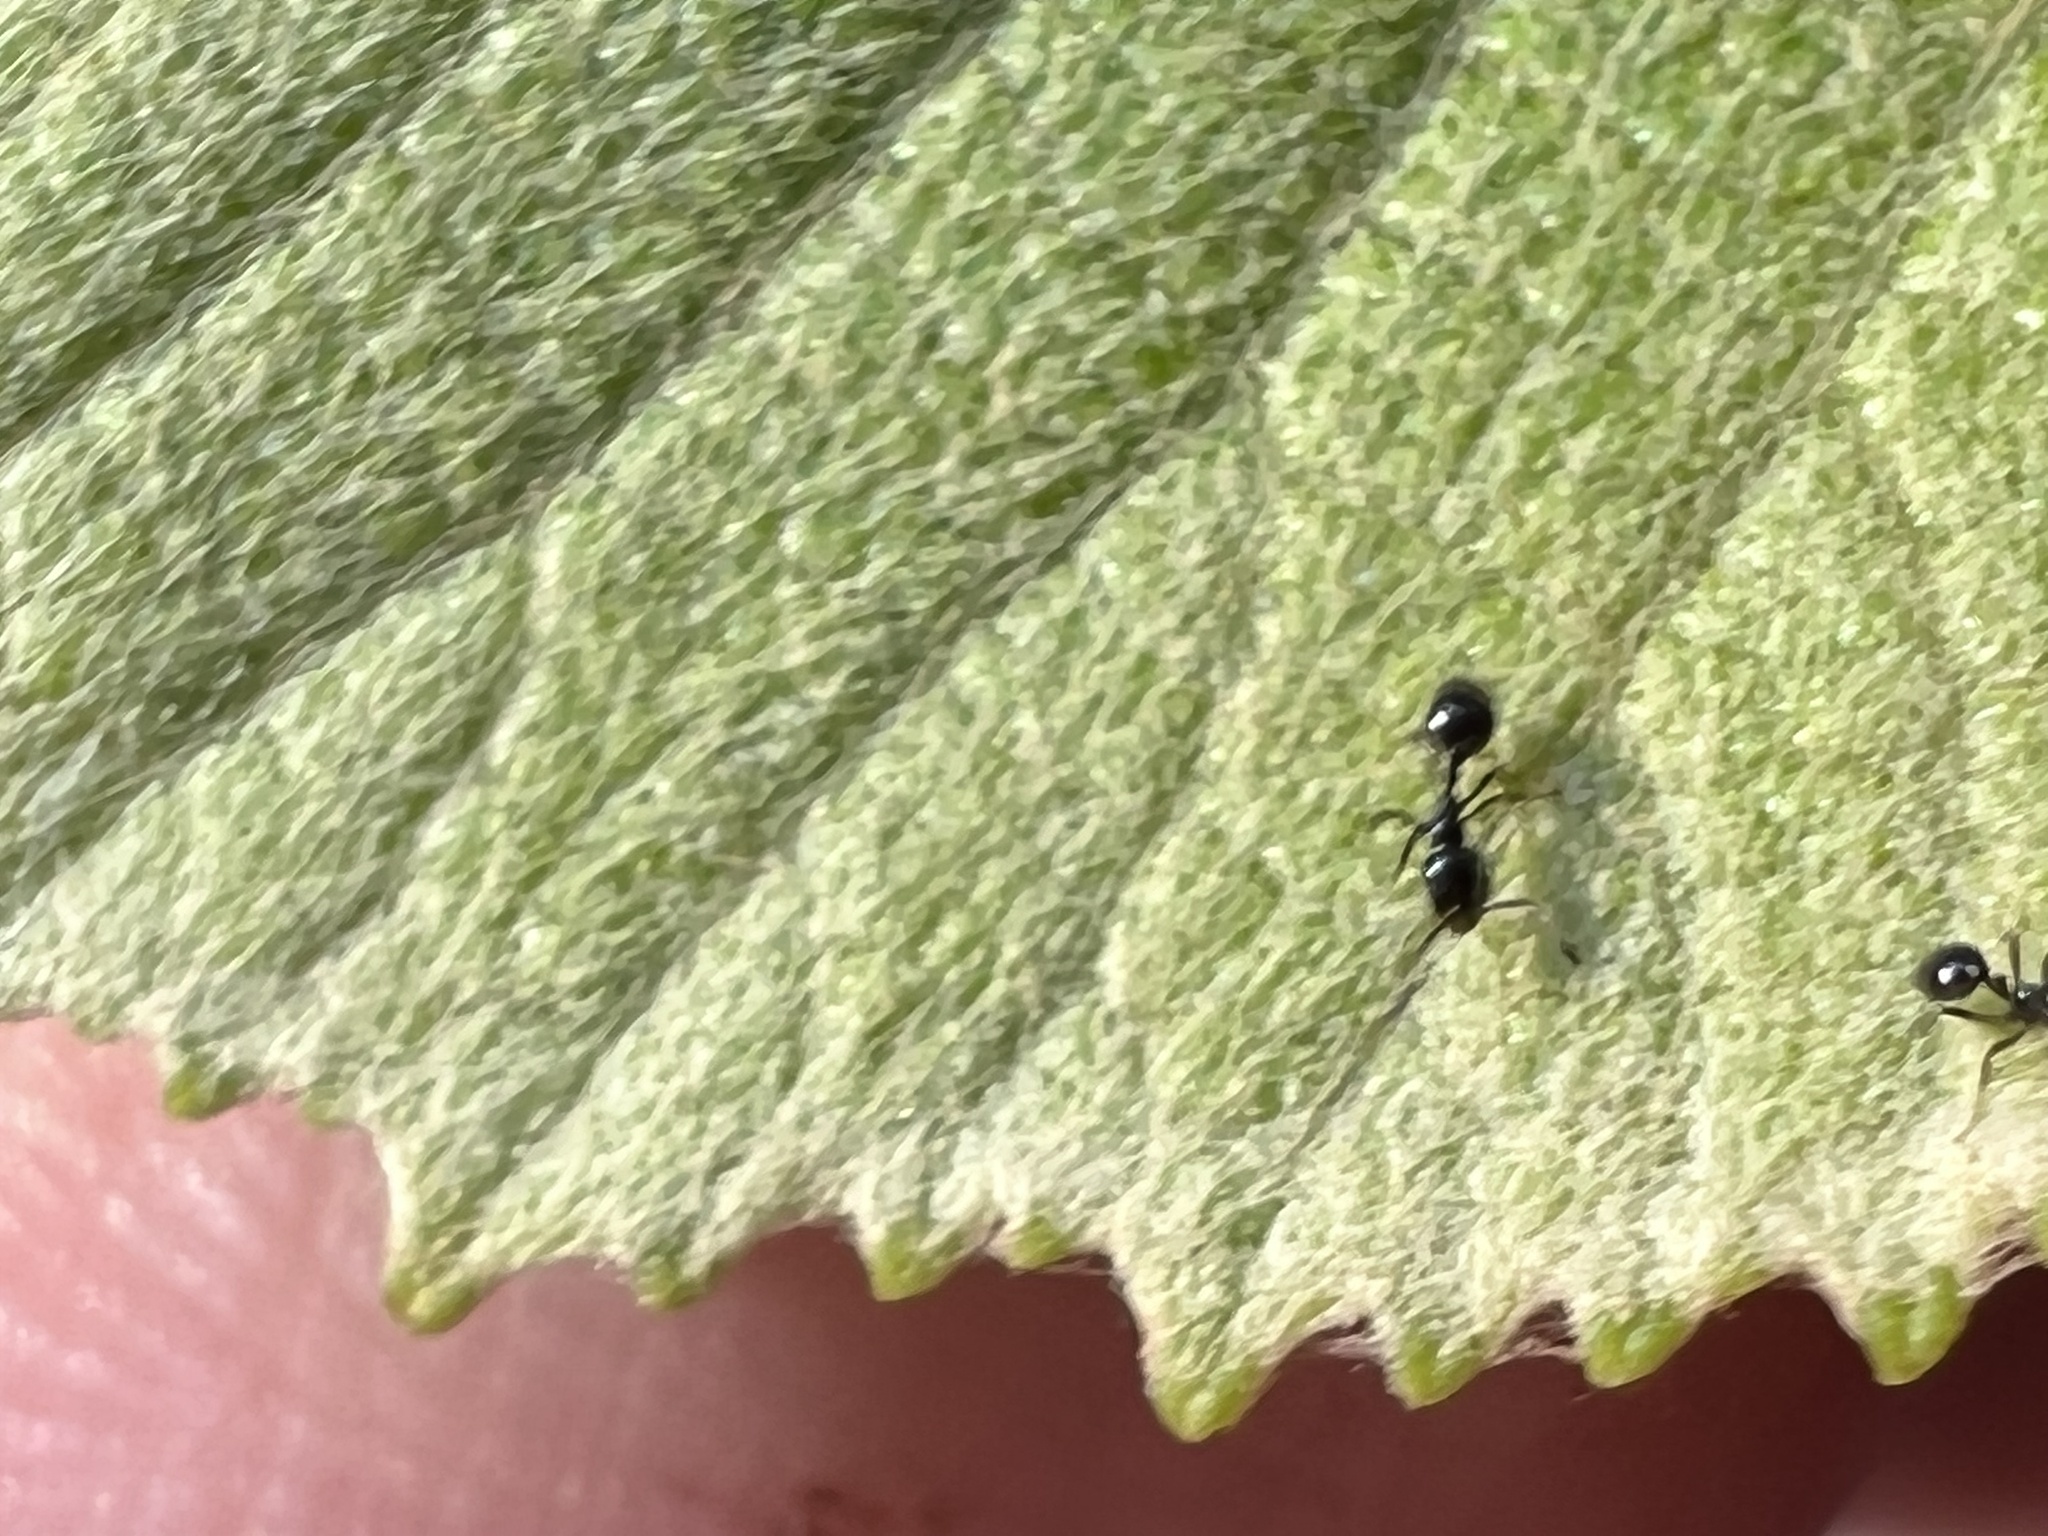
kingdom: Animalia
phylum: Arthropoda
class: Insecta
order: Hymenoptera
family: Formicidae
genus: Monomorium
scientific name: Monomorium minimum
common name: Little black ant
